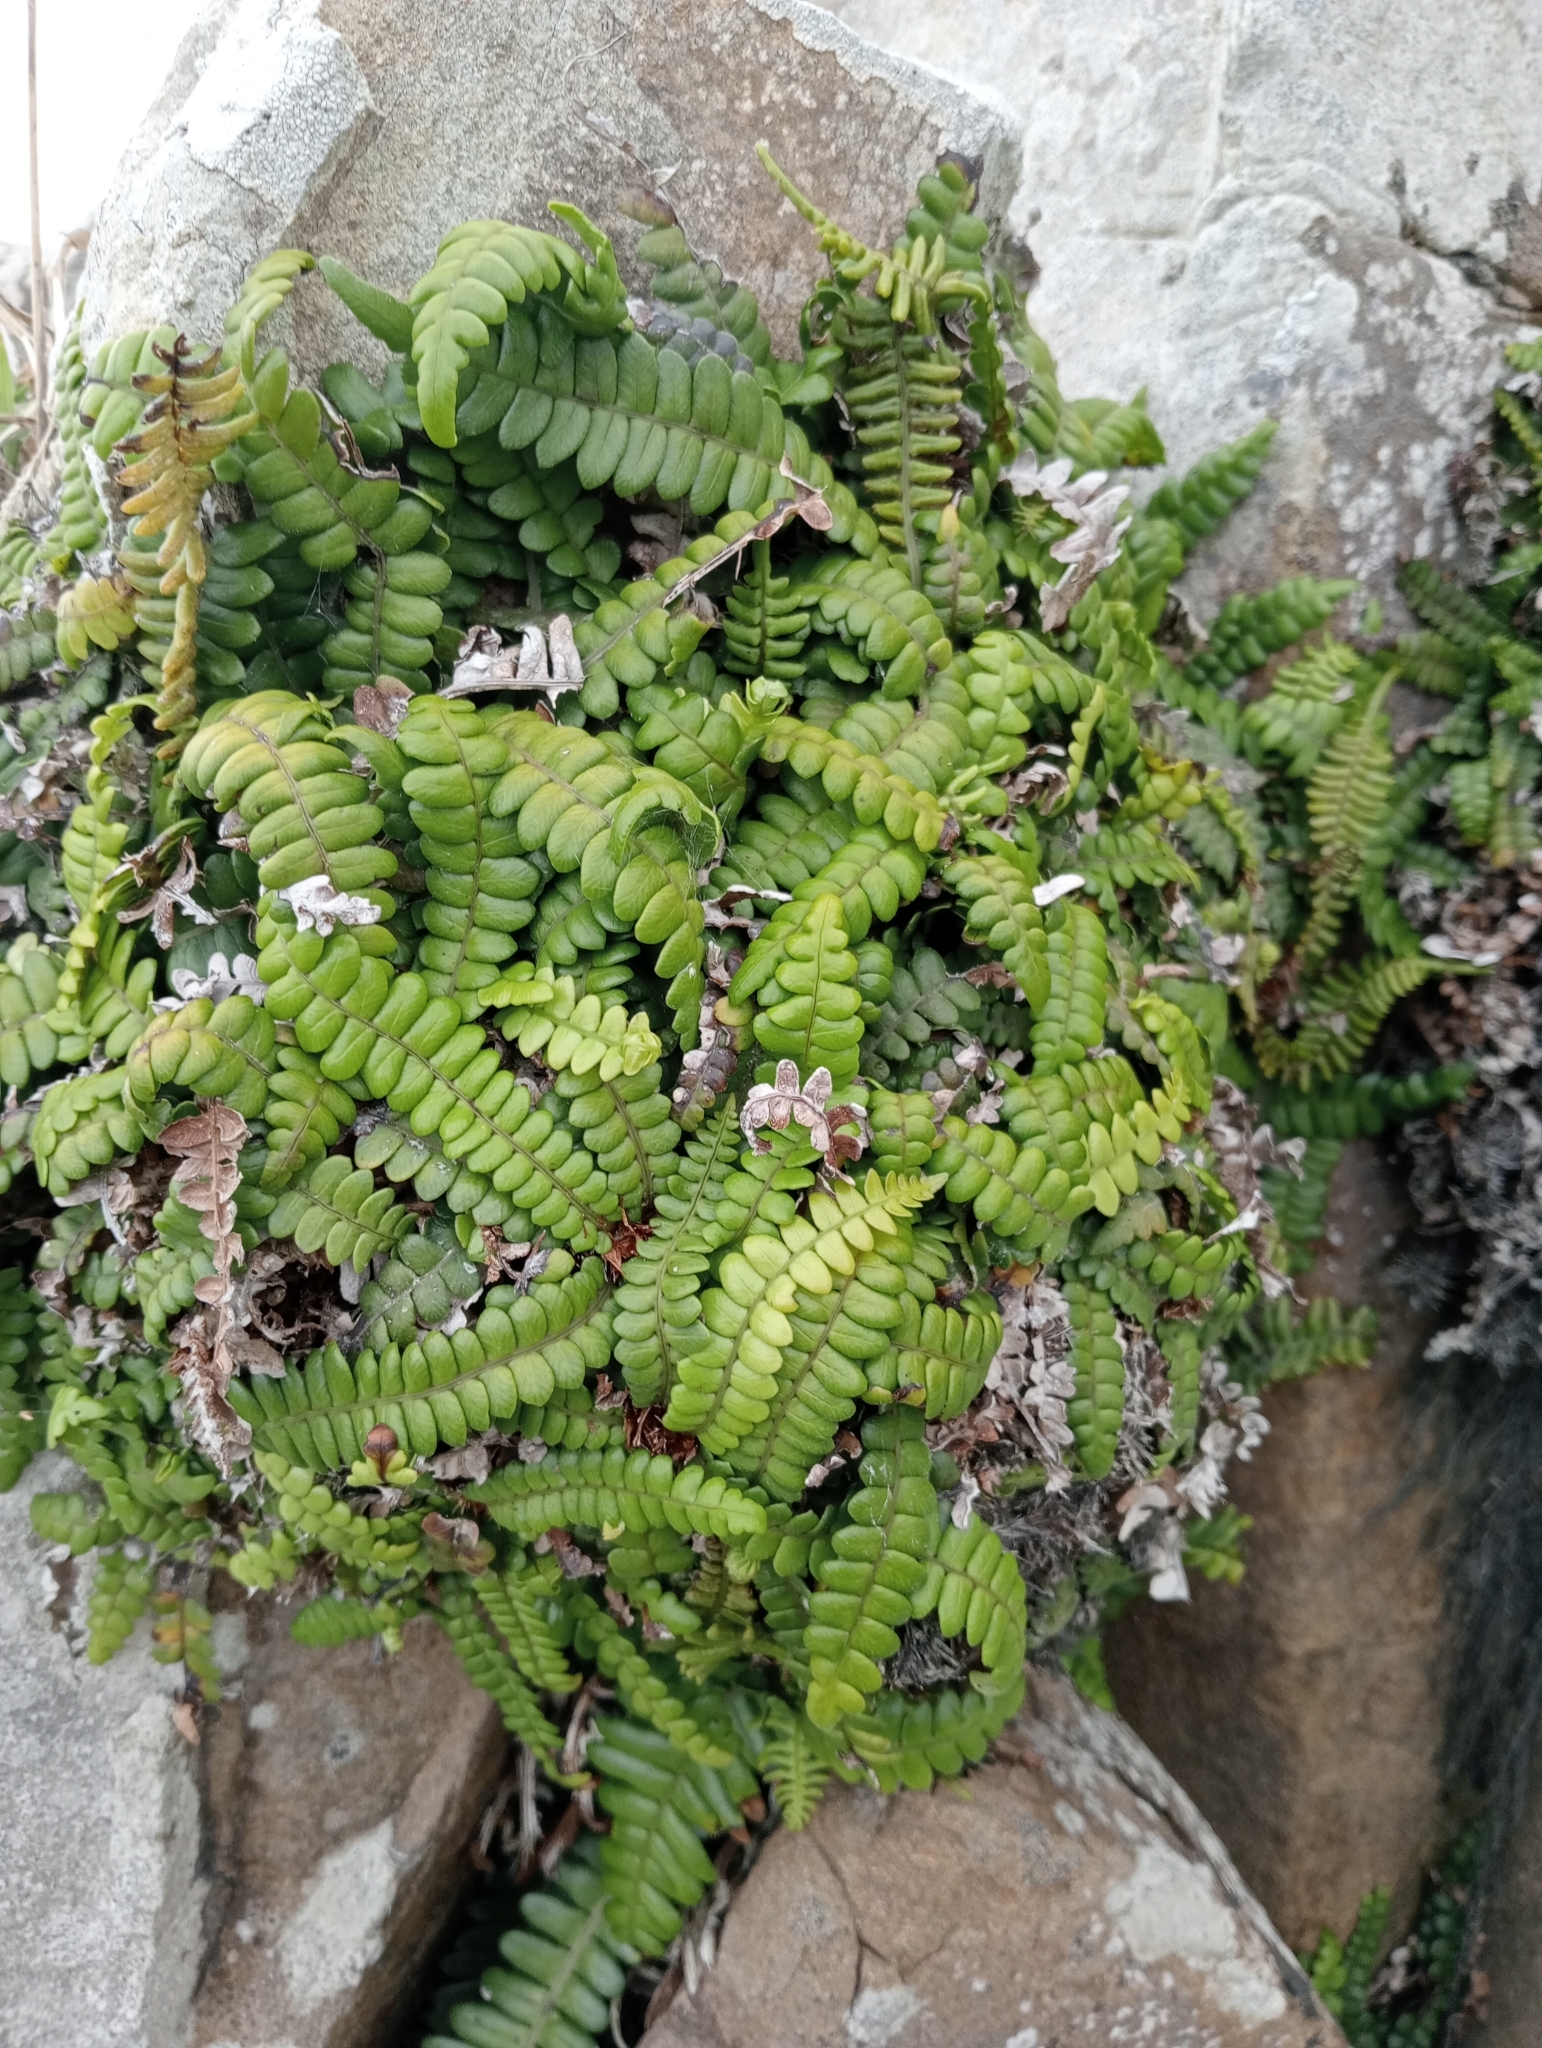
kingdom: Plantae
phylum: Tracheophyta
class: Polypodiopsida
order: Polypodiales
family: Blechnaceae
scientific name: Blechnaceae
